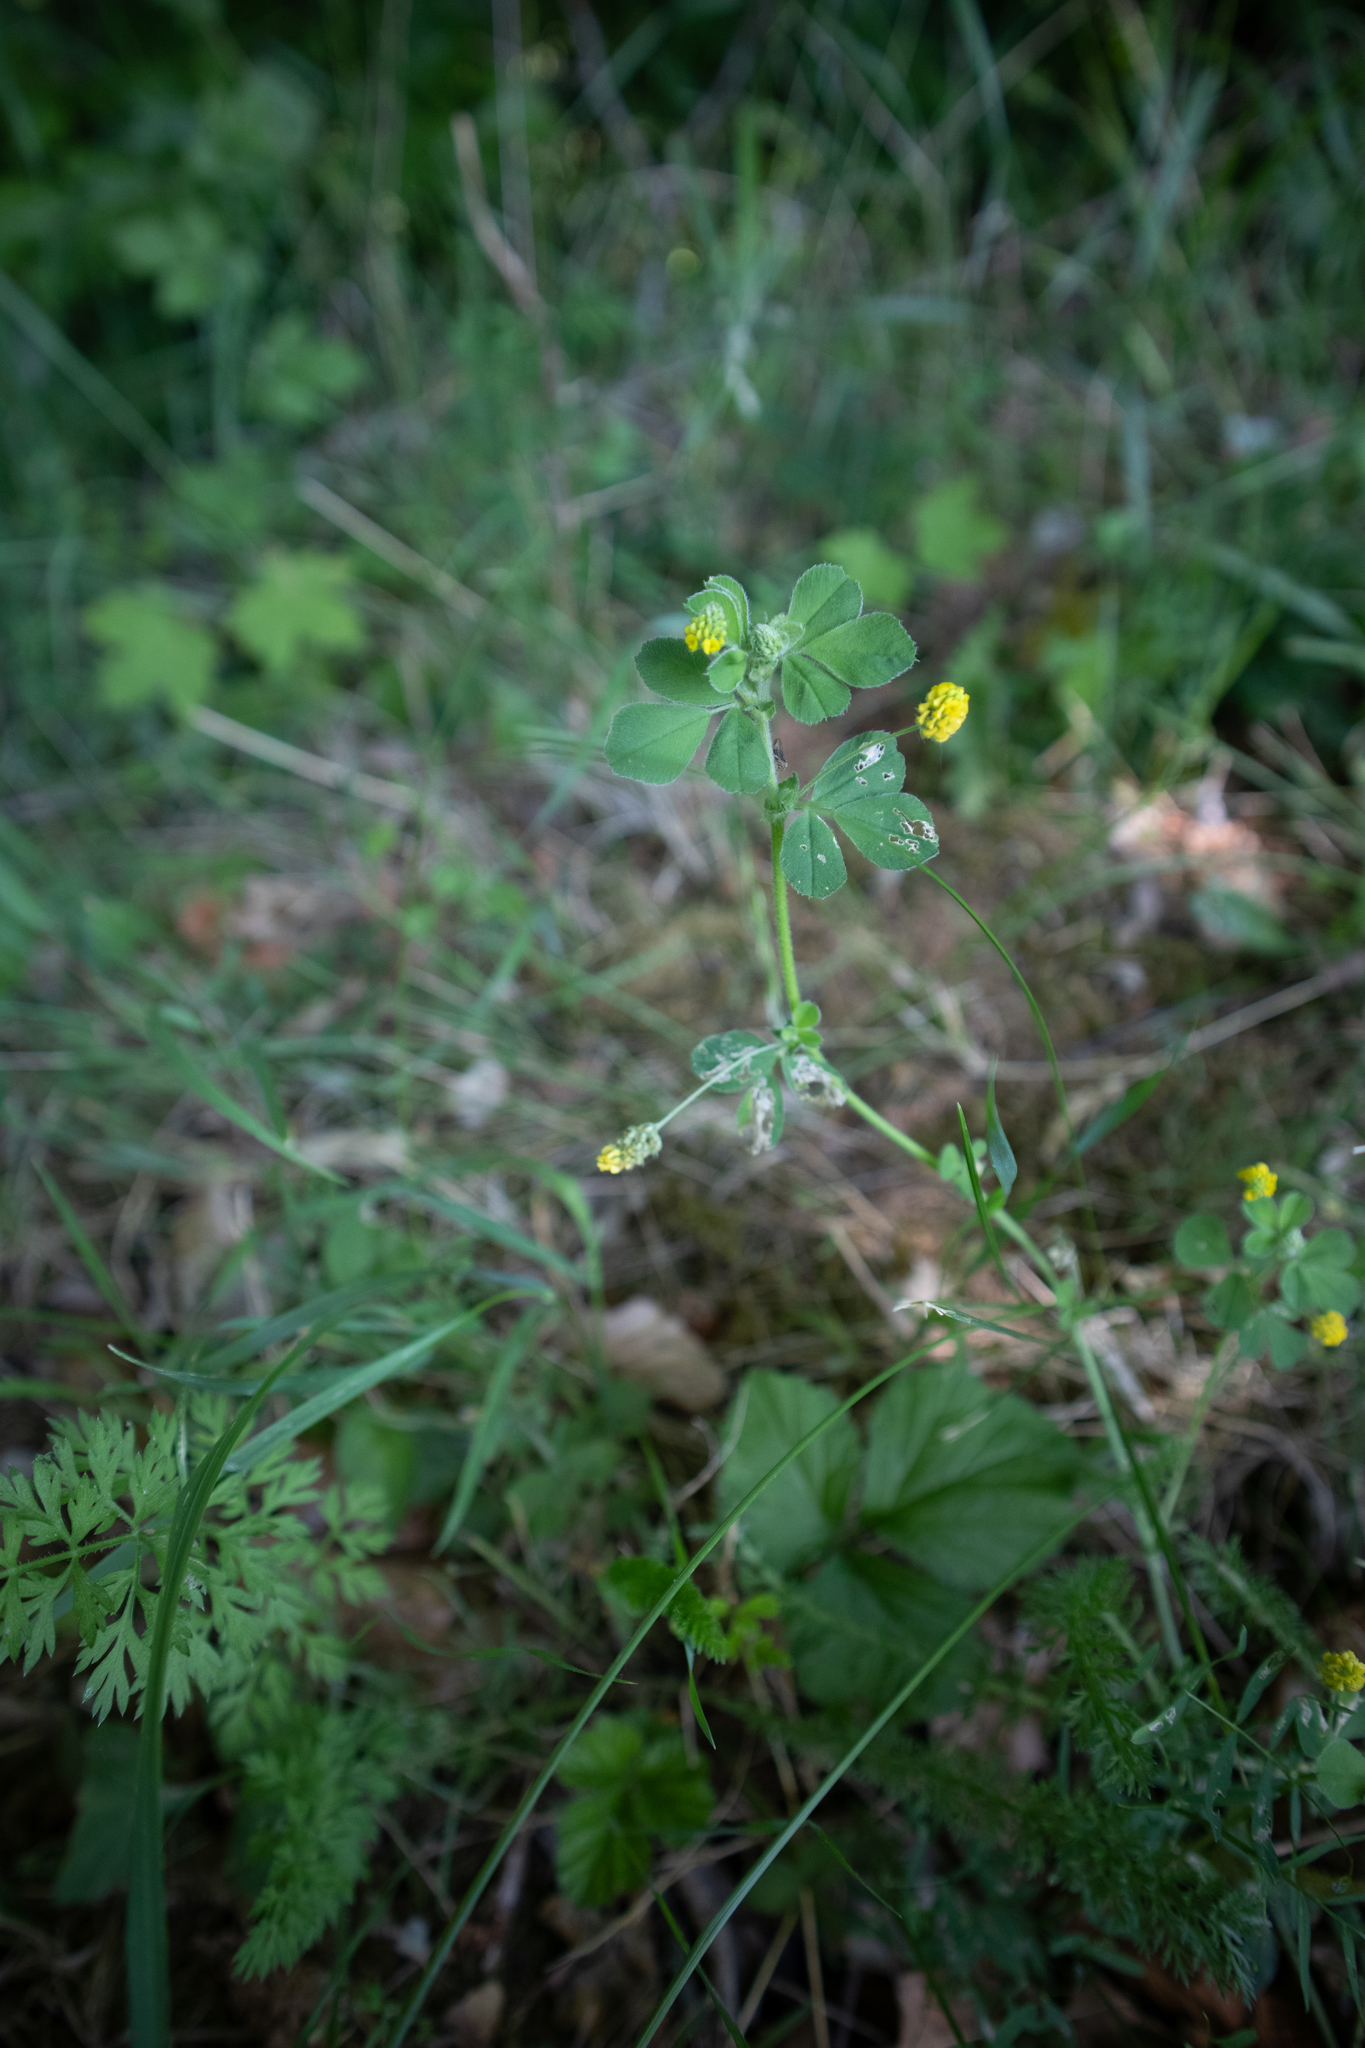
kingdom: Plantae
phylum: Tracheophyta
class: Magnoliopsida
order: Fabales
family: Fabaceae
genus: Medicago
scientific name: Medicago lupulina
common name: Black medick
